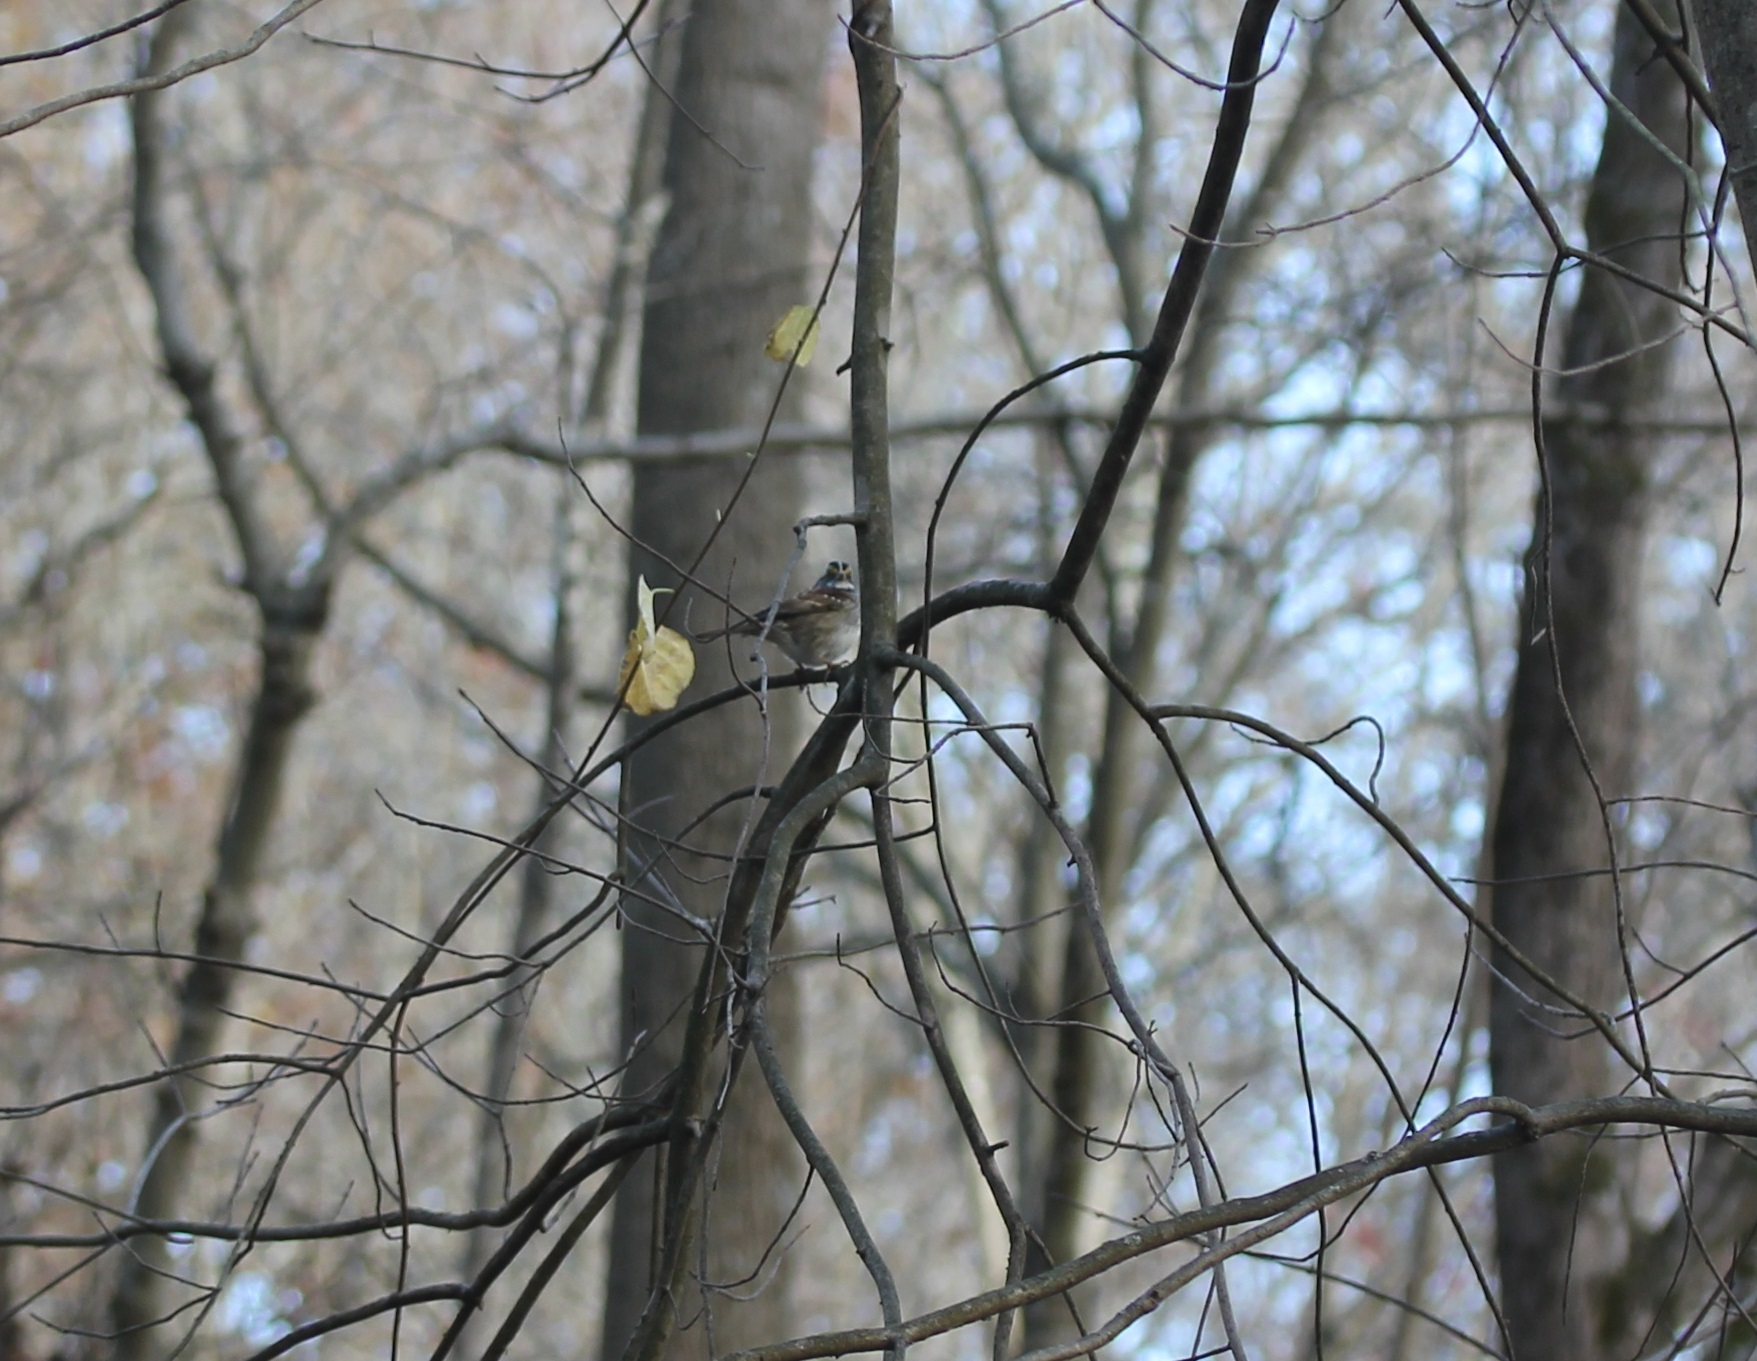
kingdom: Animalia
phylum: Chordata
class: Aves
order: Passeriformes
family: Passerellidae
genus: Zonotrichia
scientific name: Zonotrichia albicollis
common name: White-throated sparrow
